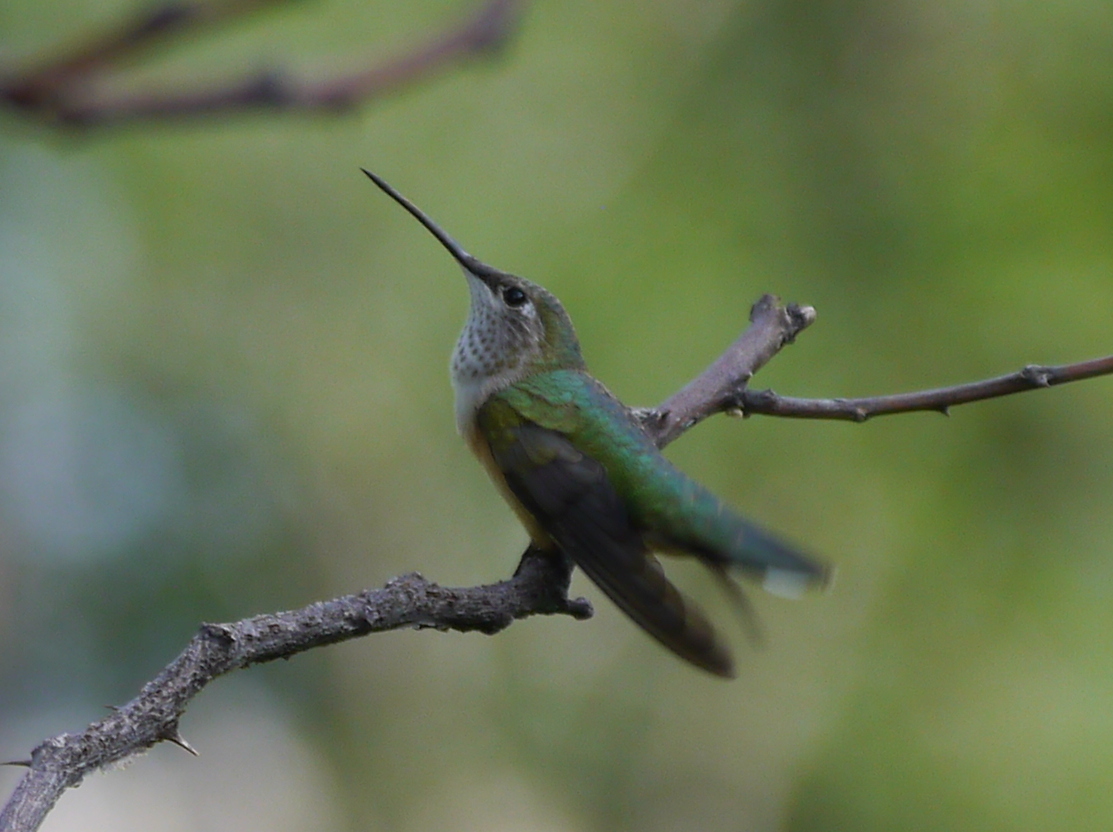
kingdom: Animalia
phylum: Chordata
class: Aves
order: Apodiformes
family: Trochilidae
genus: Selasphorus
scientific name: Selasphorus platycercus
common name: Broad-tailed hummingbird
